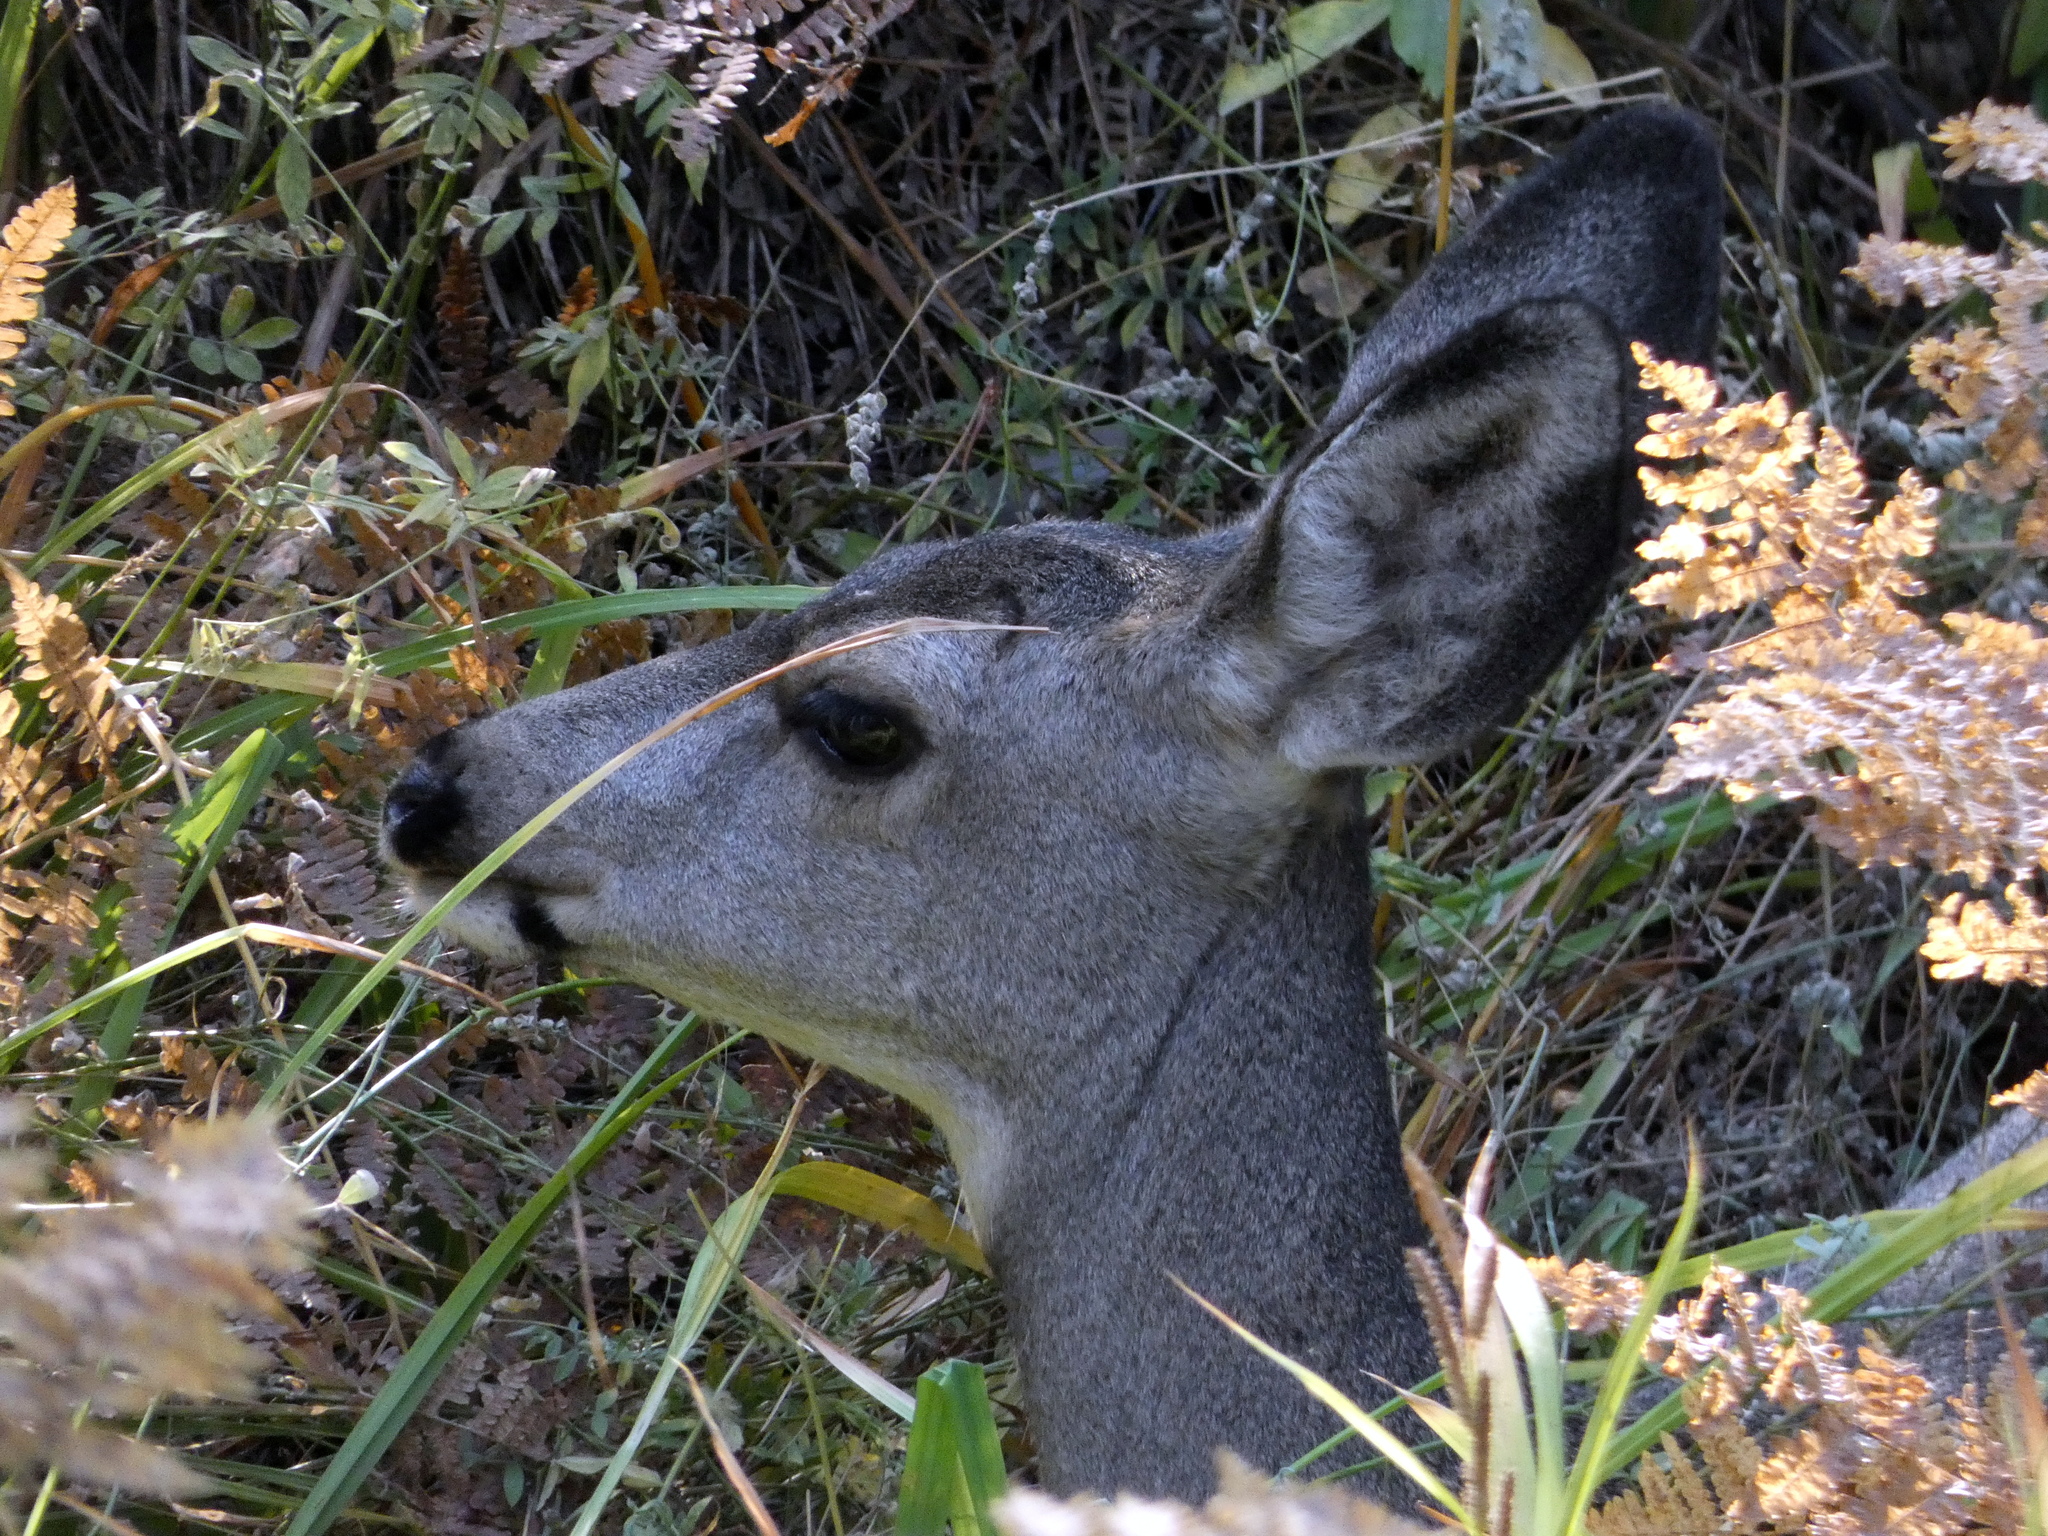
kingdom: Animalia
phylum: Chordata
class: Mammalia
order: Artiodactyla
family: Cervidae
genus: Odocoileus
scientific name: Odocoileus hemionus
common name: Mule deer
